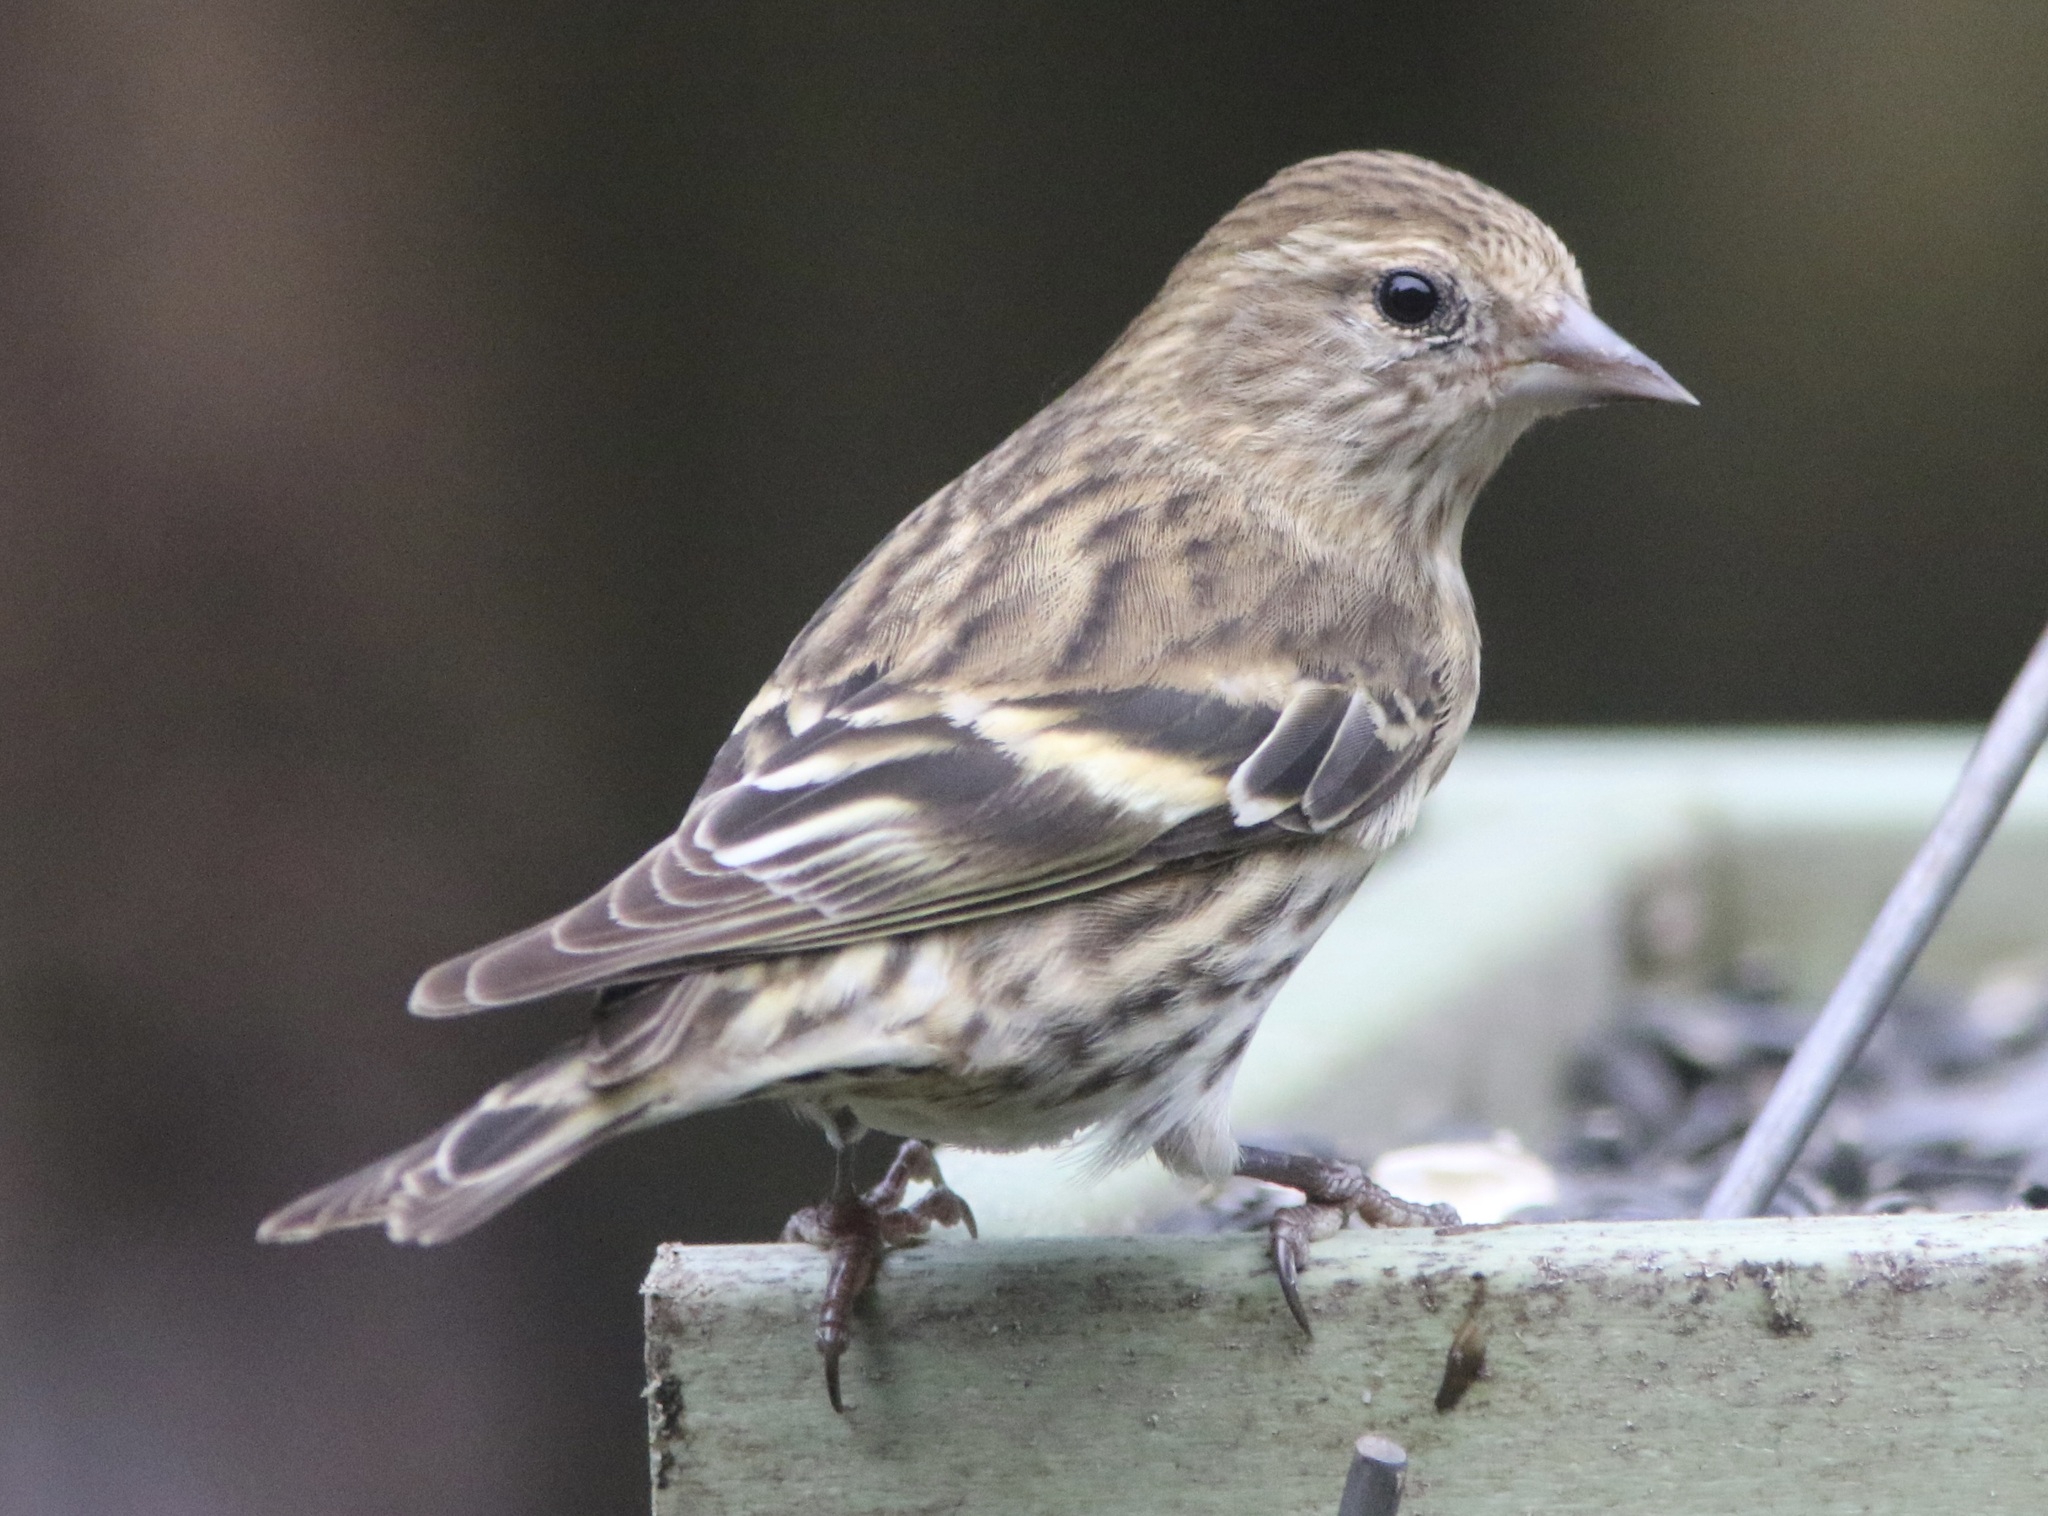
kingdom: Animalia
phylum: Chordata
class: Aves
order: Passeriformes
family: Fringillidae
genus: Spinus
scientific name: Spinus pinus
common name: Pine siskin
